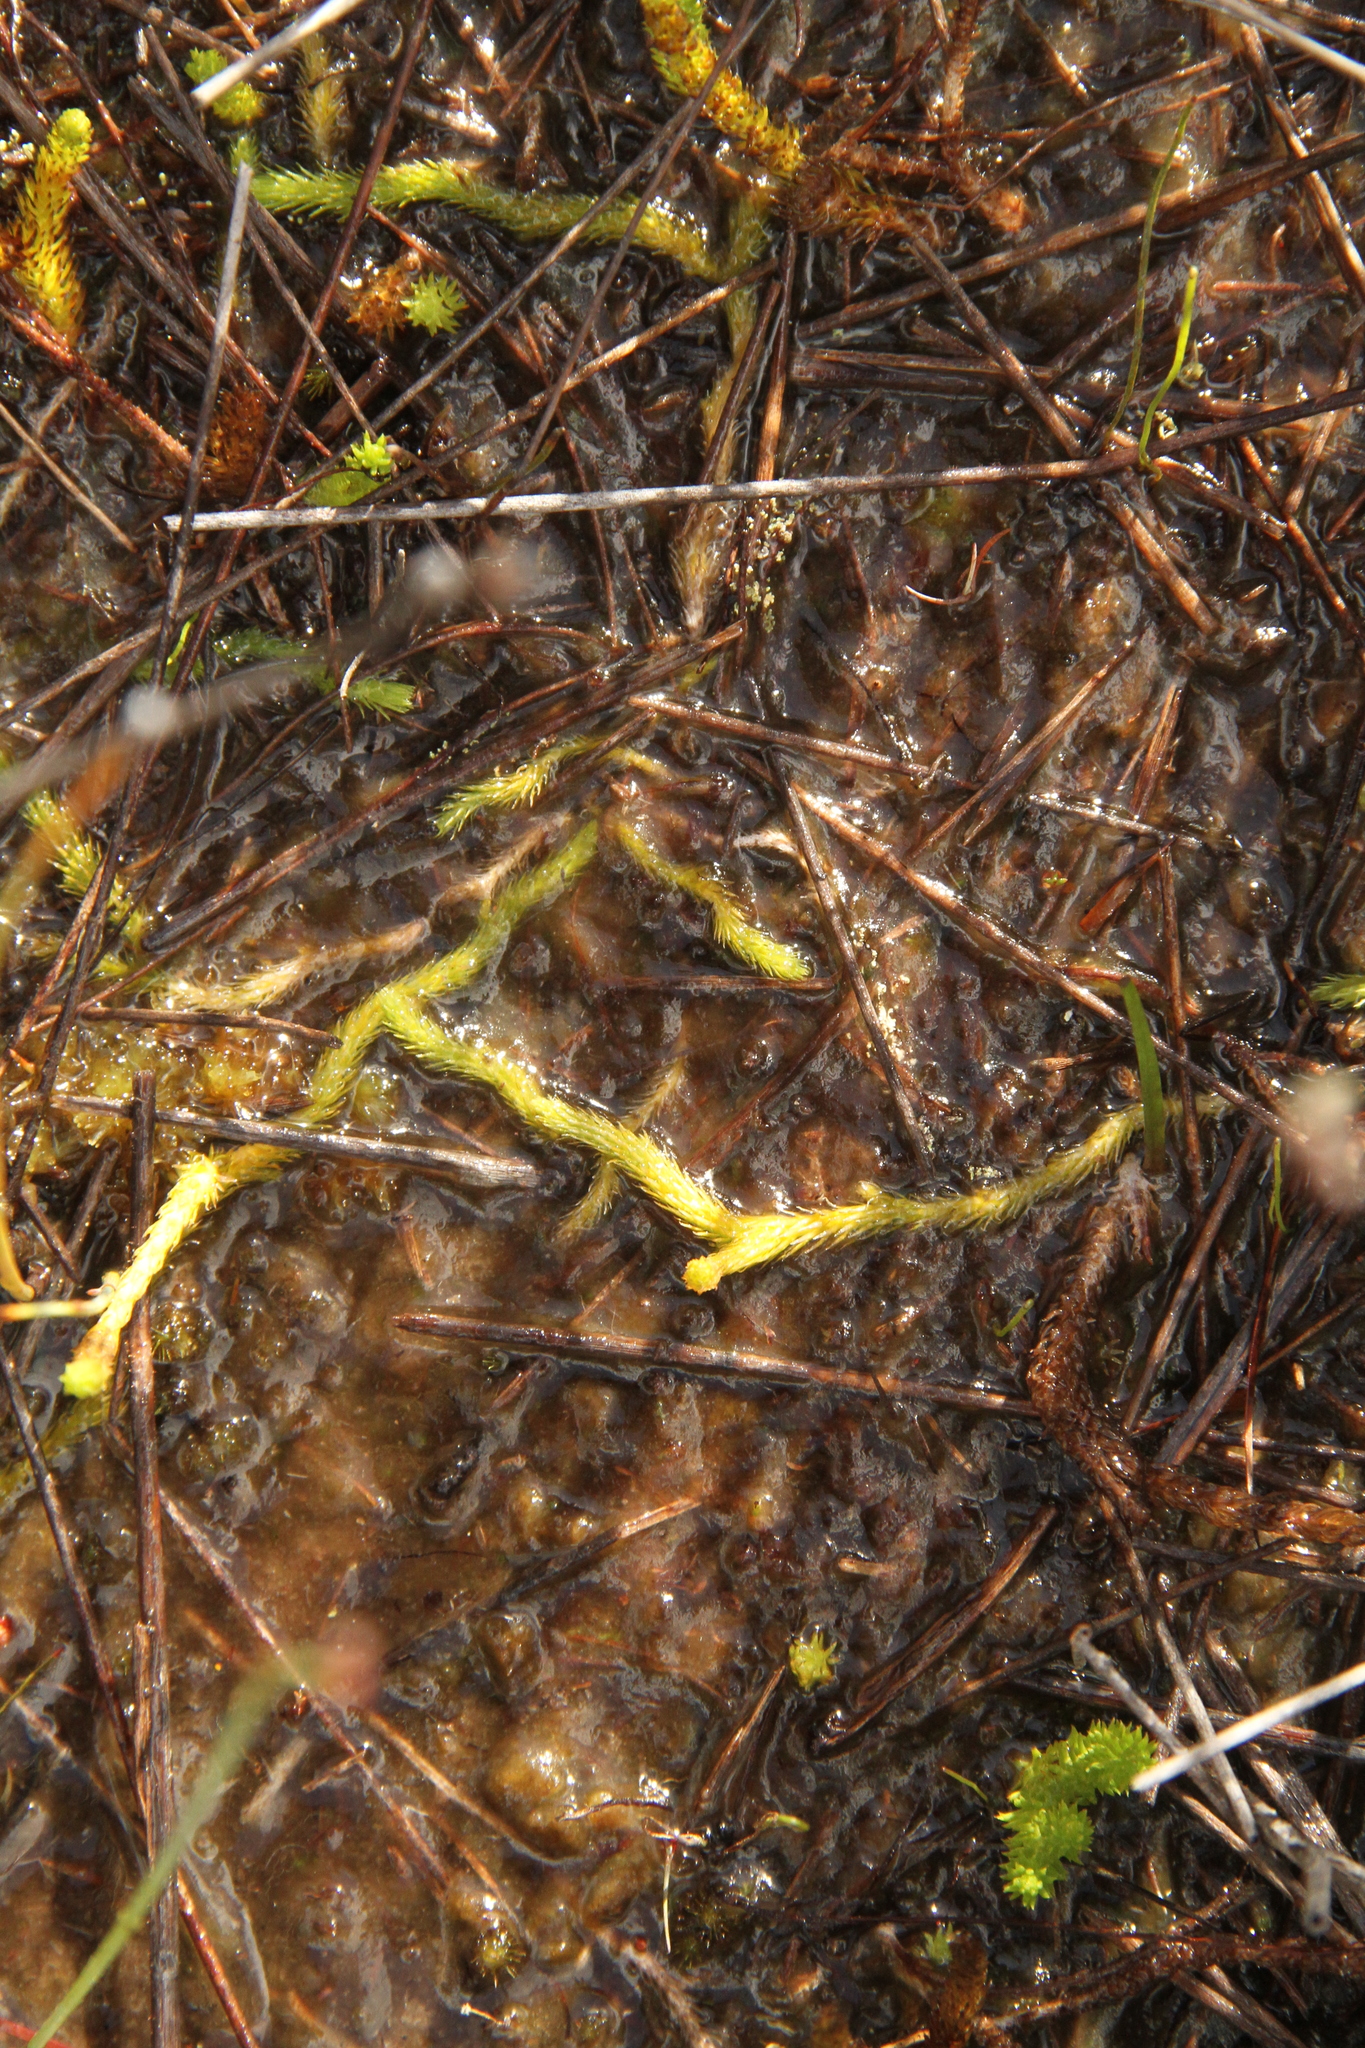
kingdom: Plantae
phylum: Tracheophyta
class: Lycopodiopsida
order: Lycopodiales
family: Lycopodiaceae
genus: Brownseya
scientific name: Brownseya serpentina
